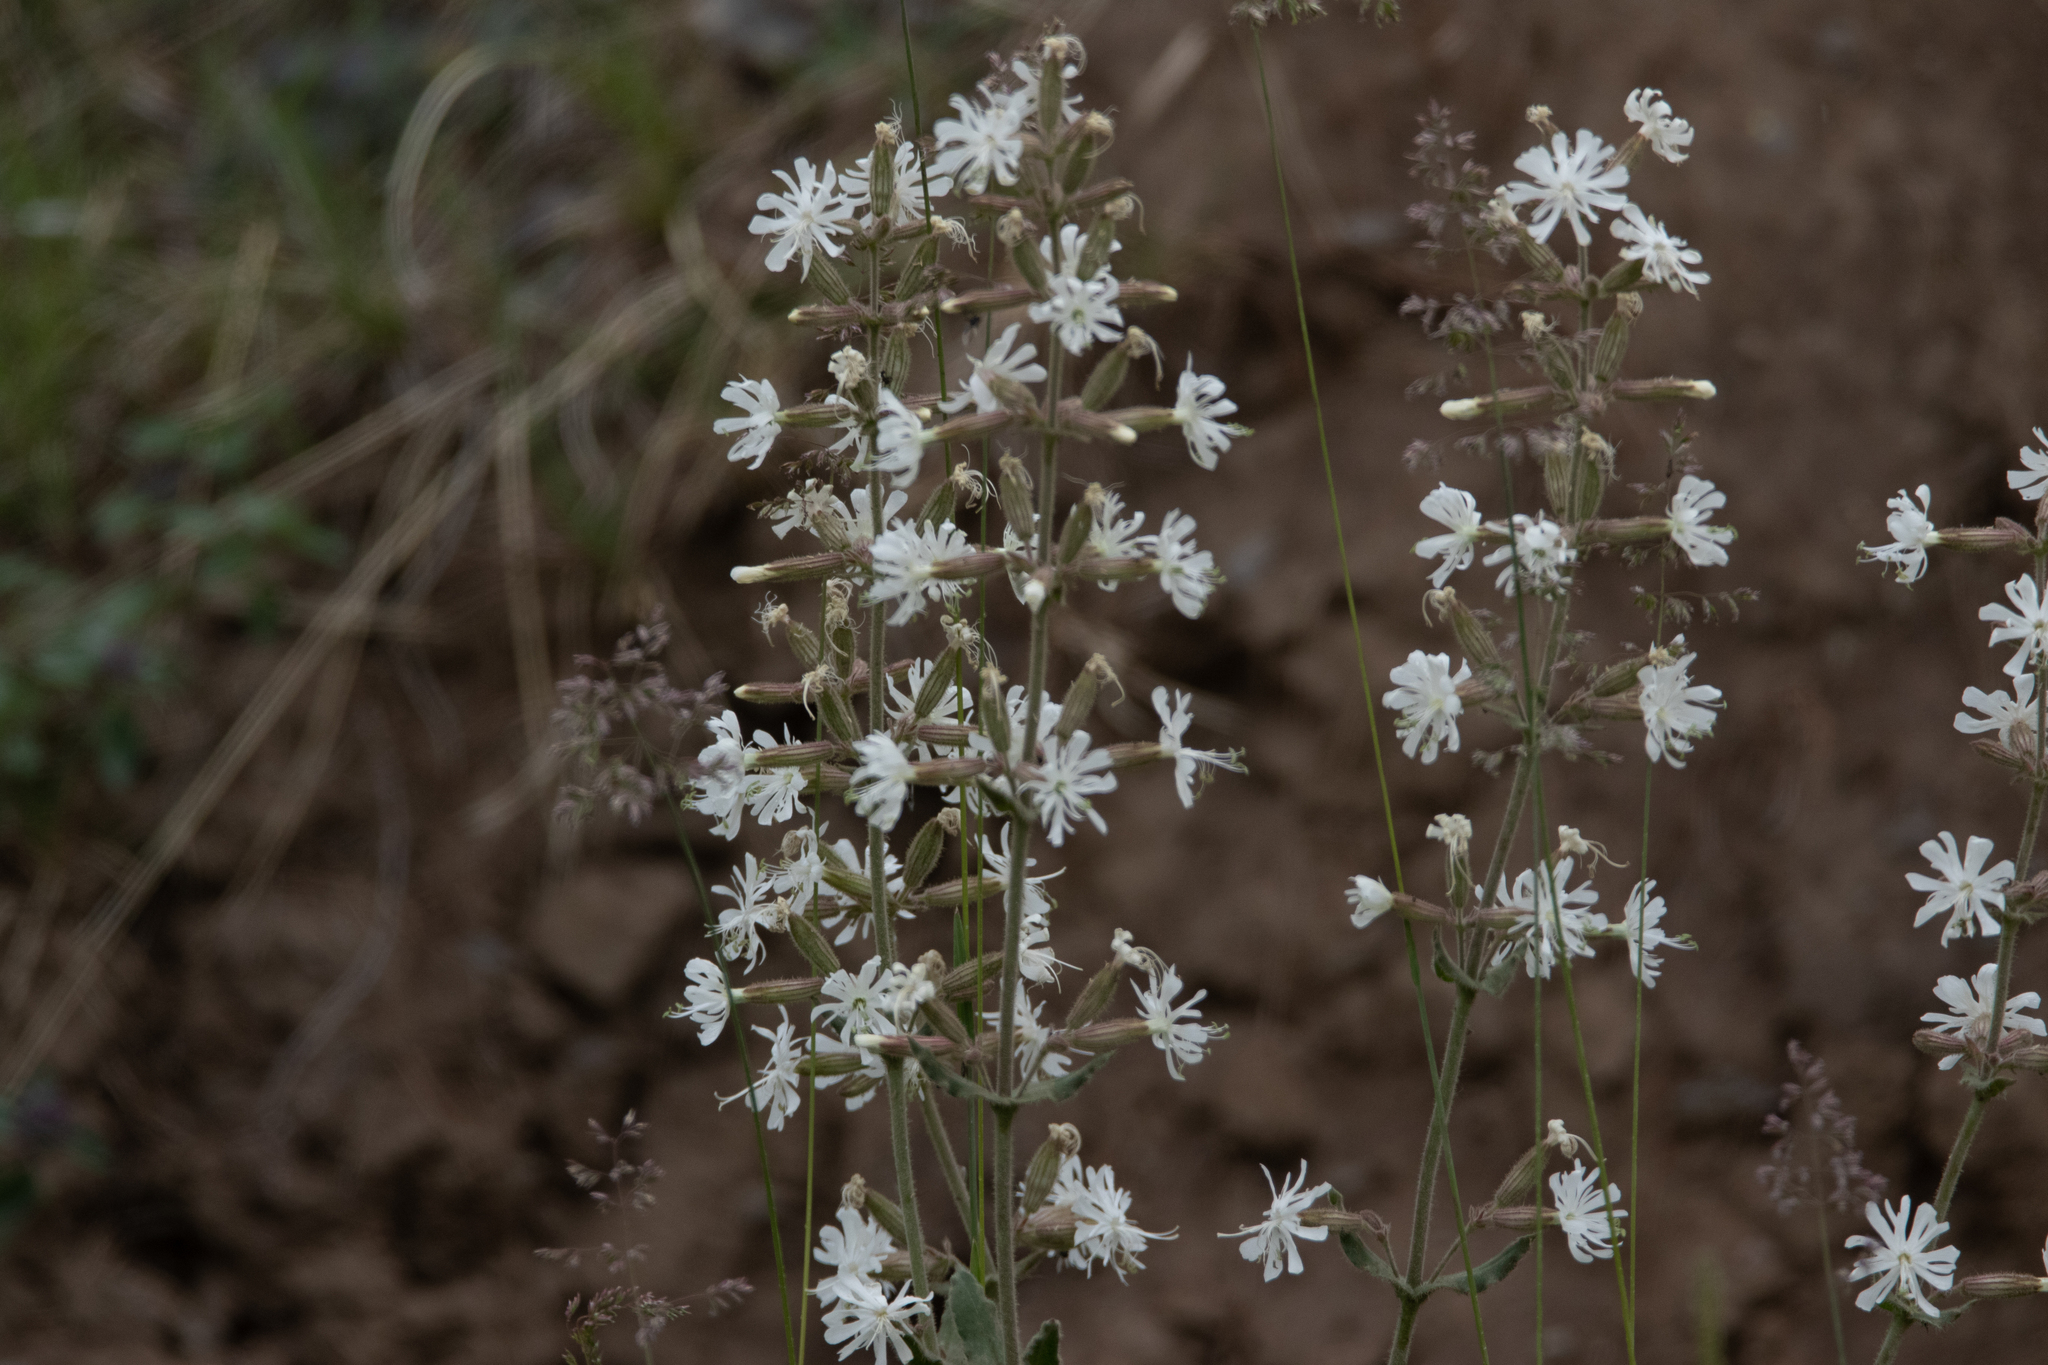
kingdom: Plantae
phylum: Tracheophyta
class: Magnoliopsida
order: Caryophyllales
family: Caryophyllaceae
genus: Silene
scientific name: Silene viscosa
